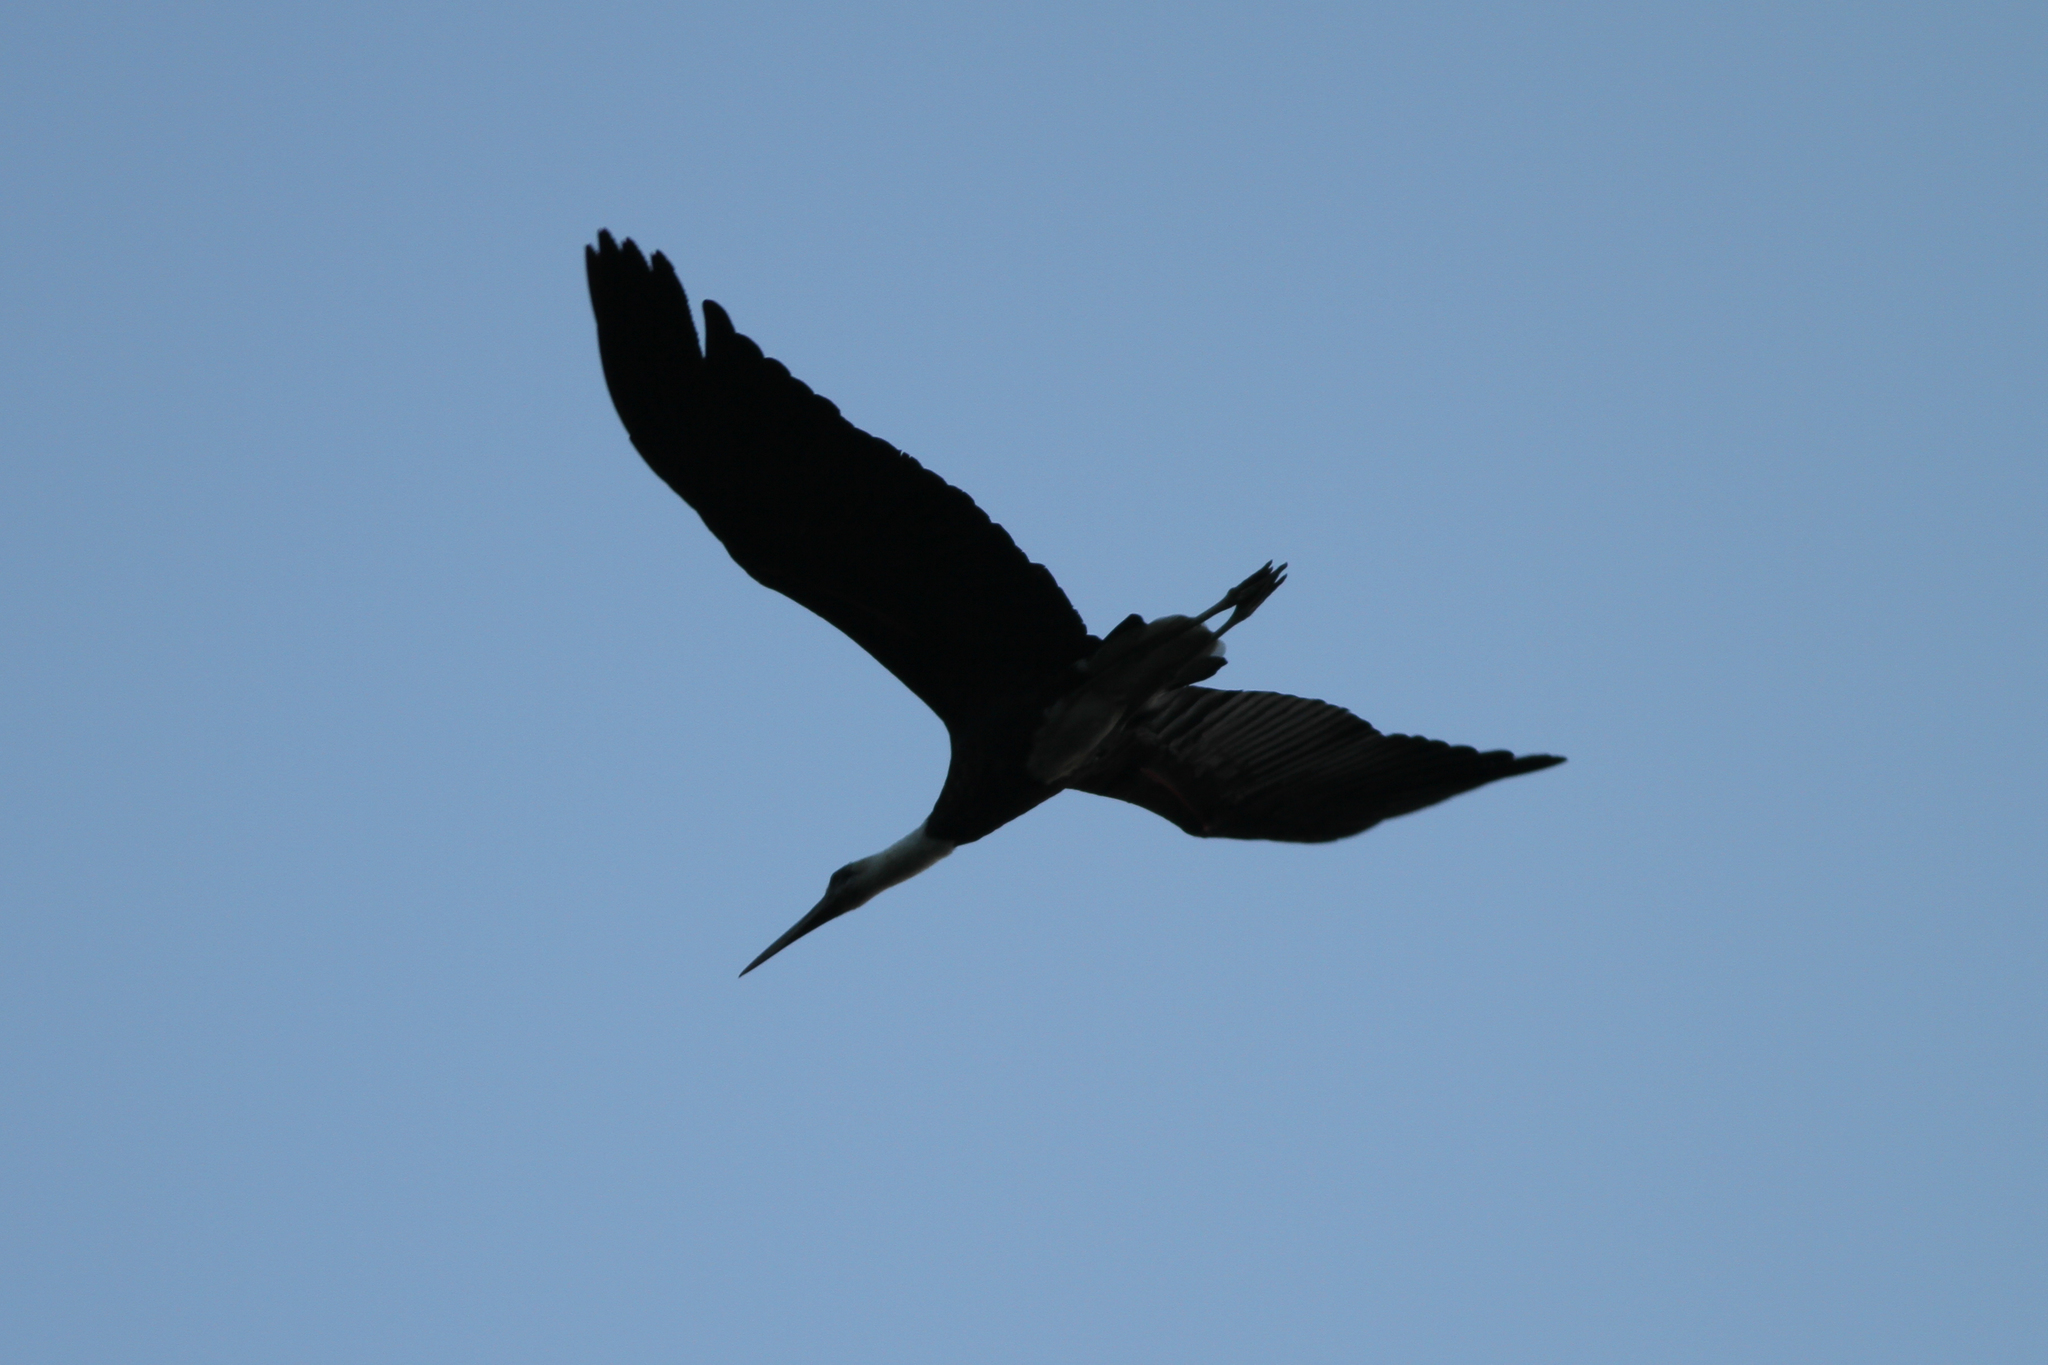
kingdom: Animalia
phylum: Chordata
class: Aves
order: Ciconiiformes
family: Ciconiidae
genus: Ciconia
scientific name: Ciconia microscelis
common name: African woollyneck
